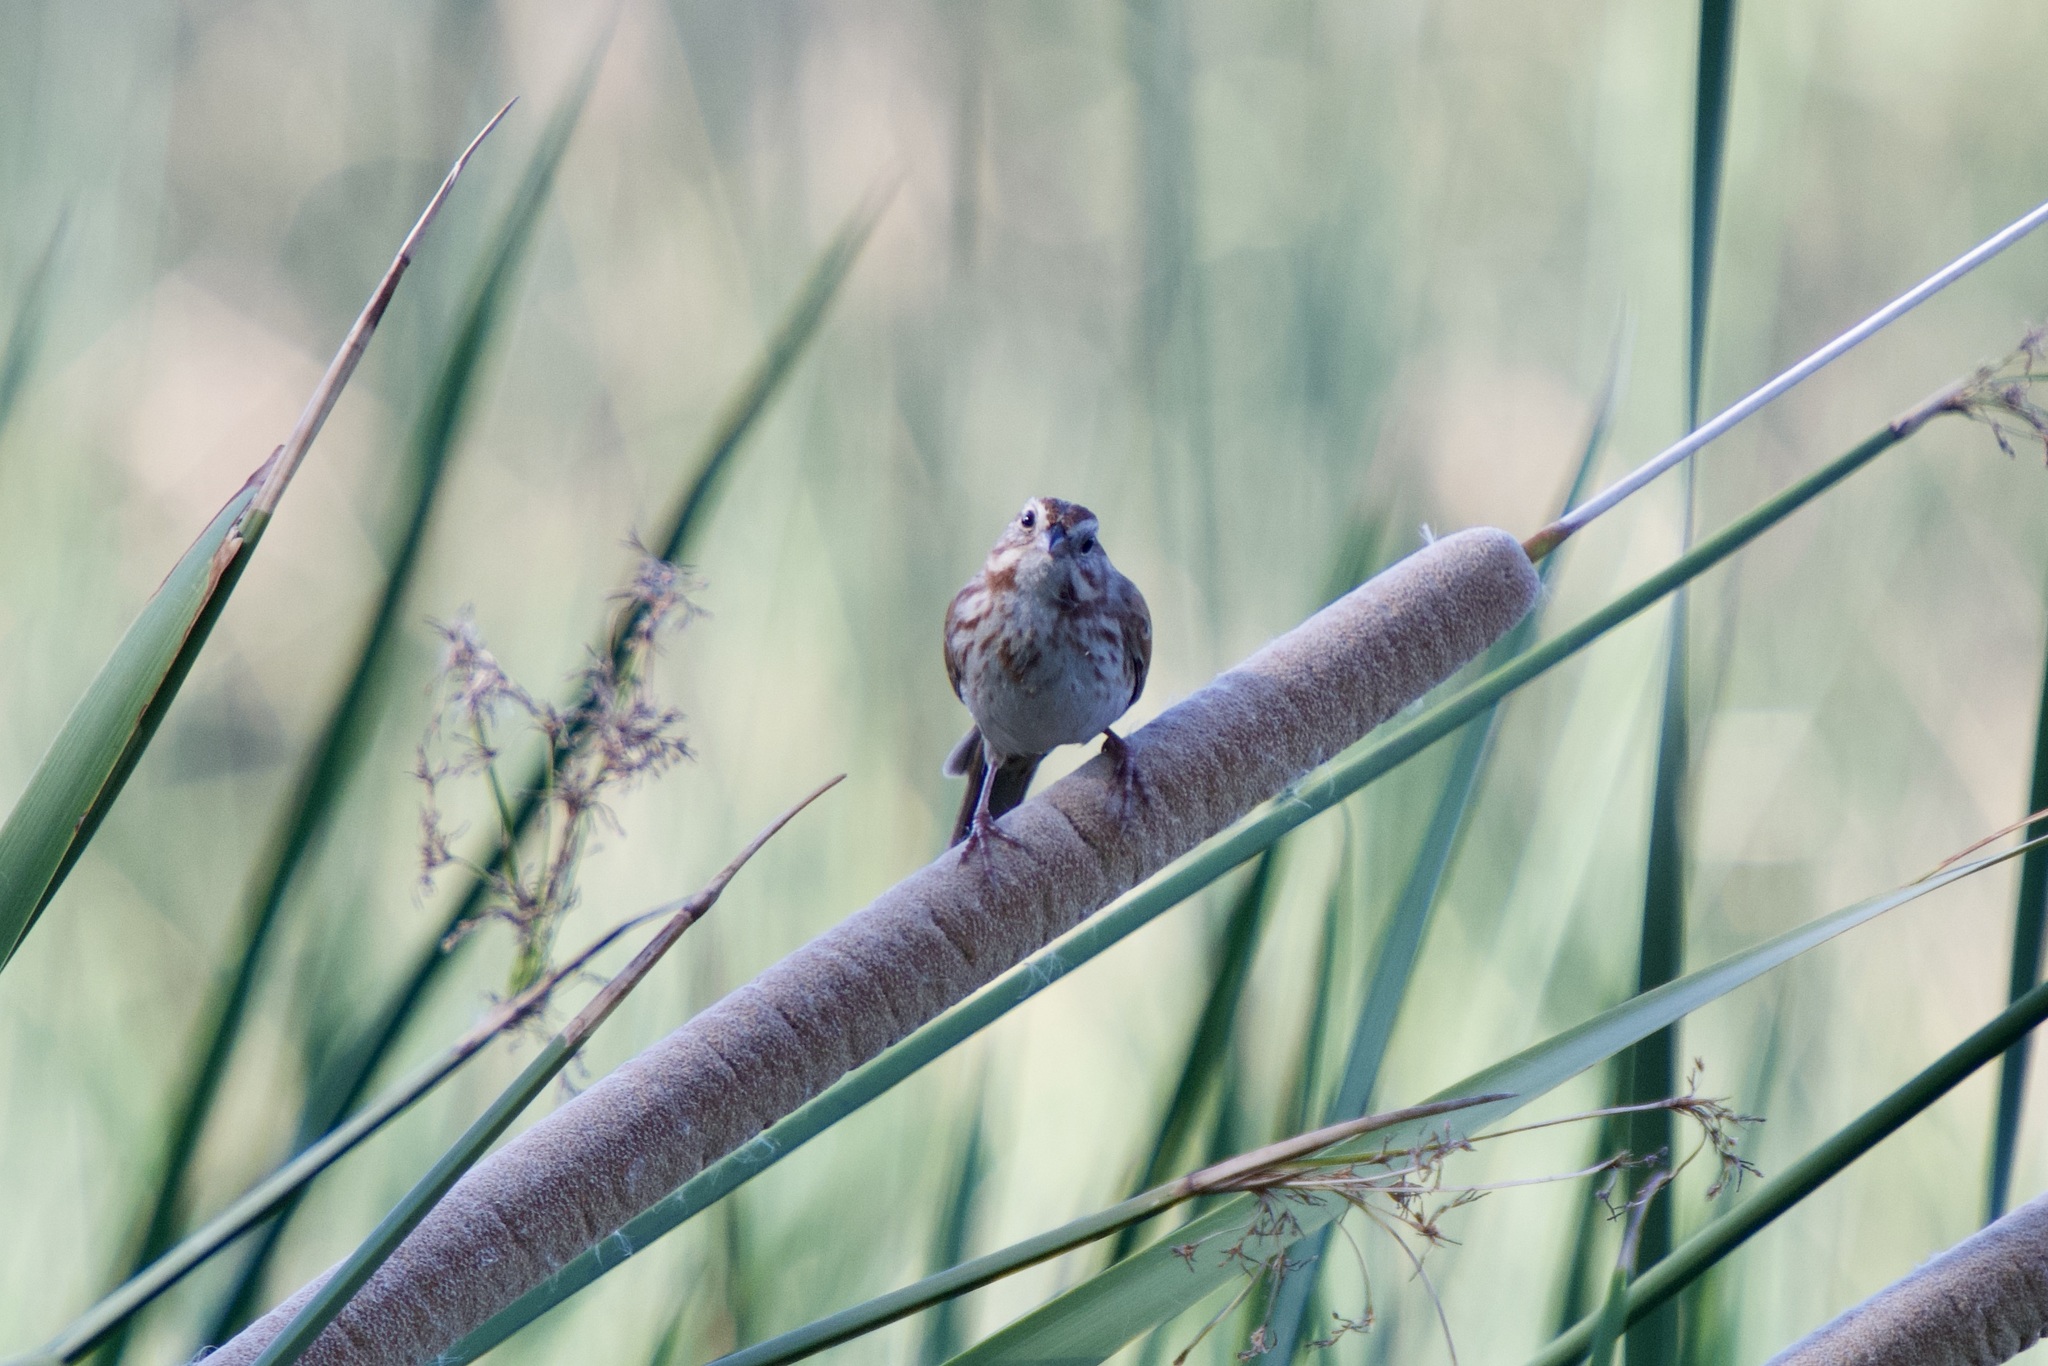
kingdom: Animalia
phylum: Chordata
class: Aves
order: Passeriformes
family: Passerellidae
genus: Melospiza
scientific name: Melospiza melodia
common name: Song sparrow
